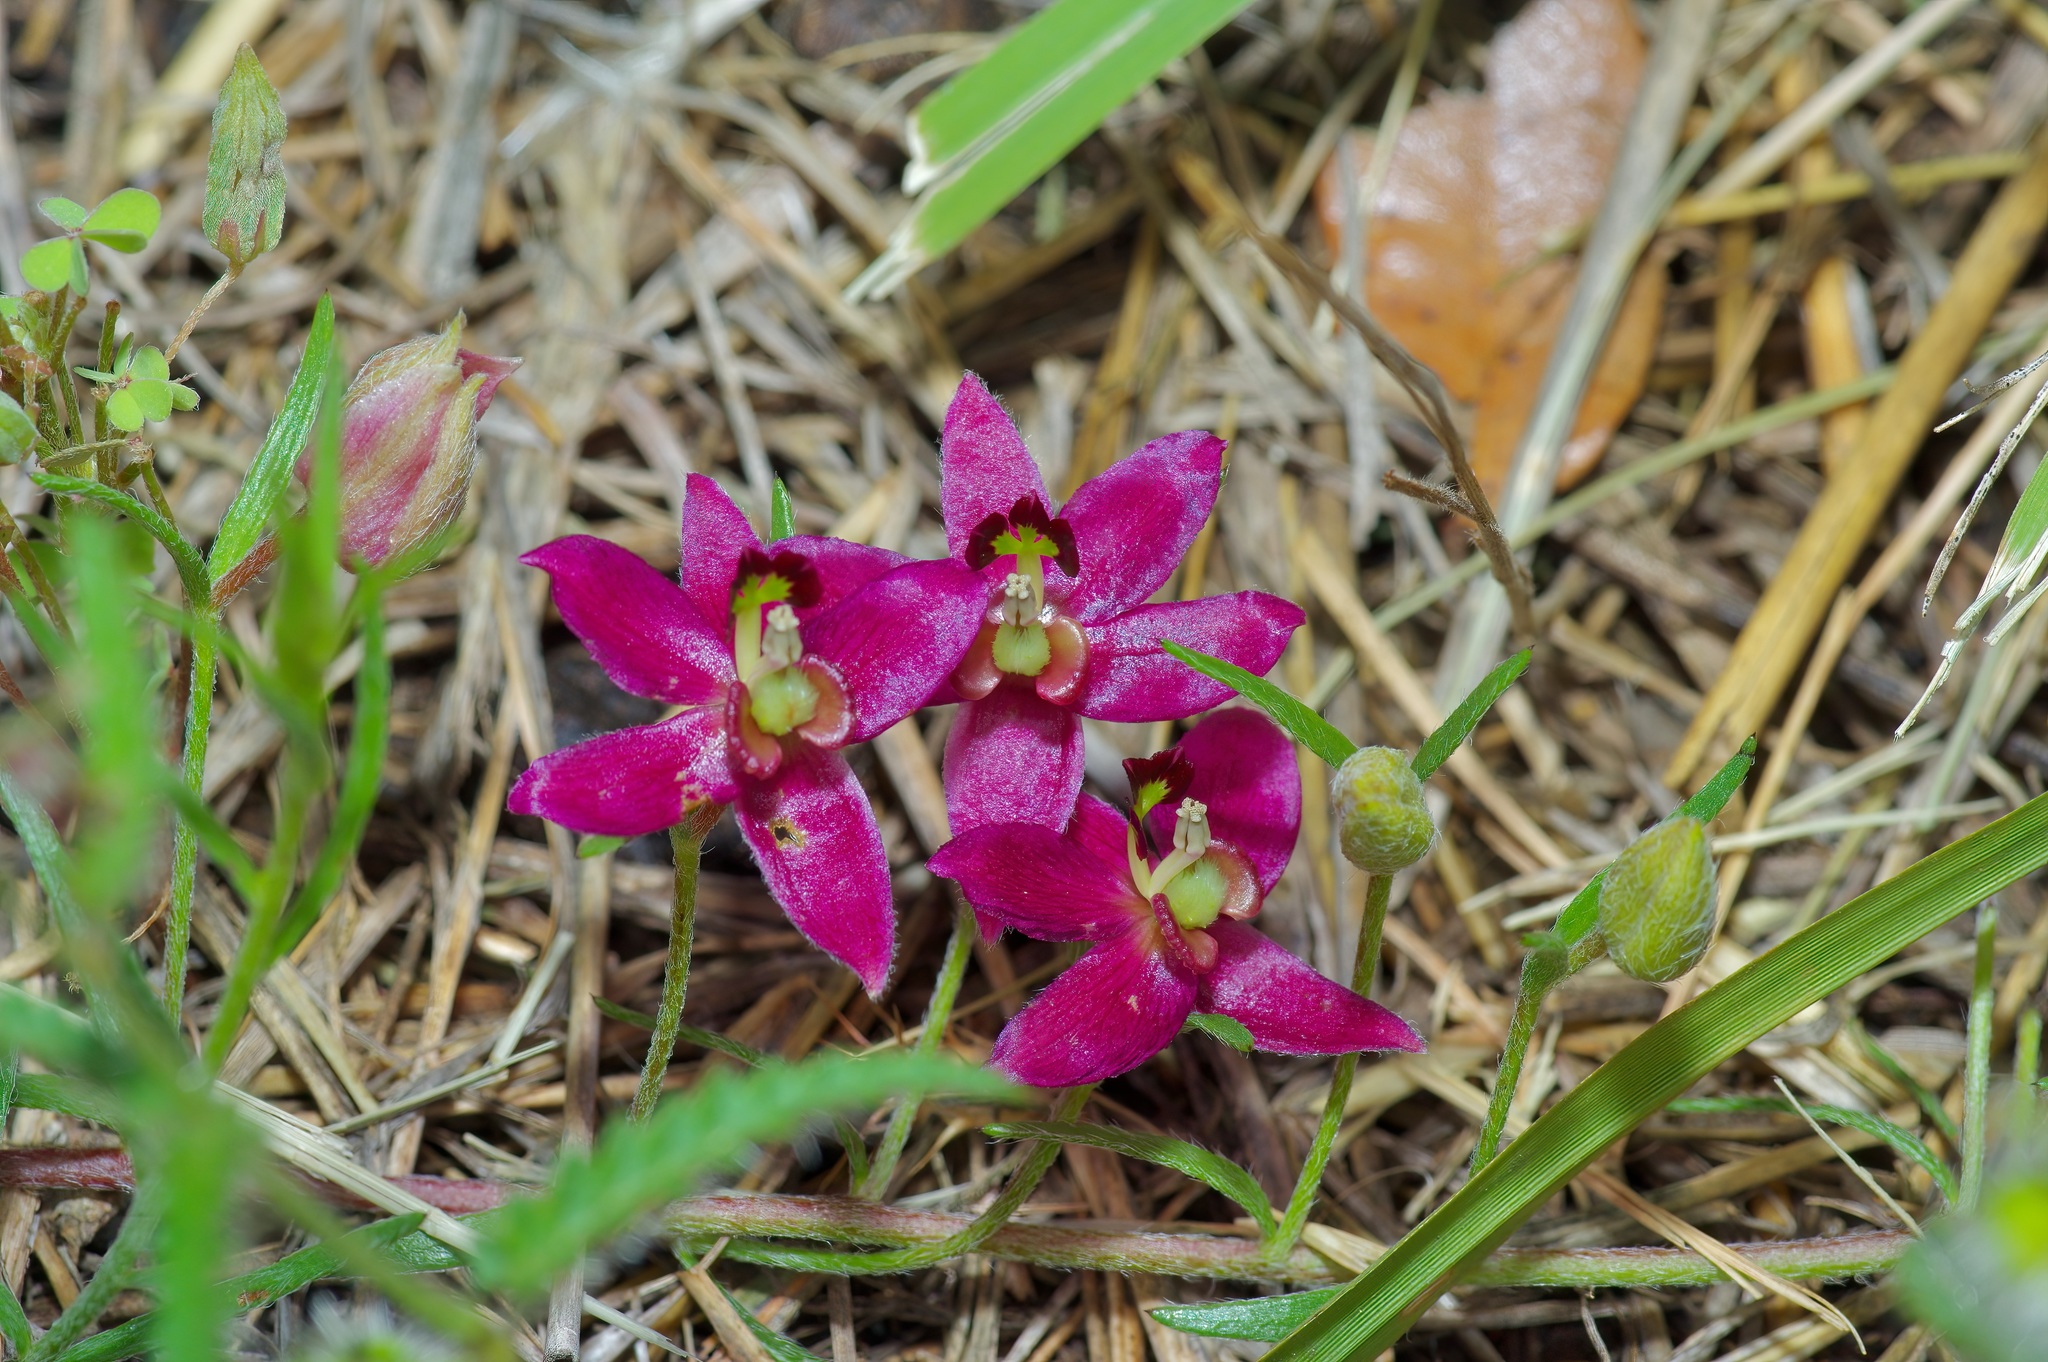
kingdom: Plantae
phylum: Tracheophyta
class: Magnoliopsida
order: Zygophyllales
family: Krameriaceae
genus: Krameria
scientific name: Krameria lanceolata
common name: Ratany
